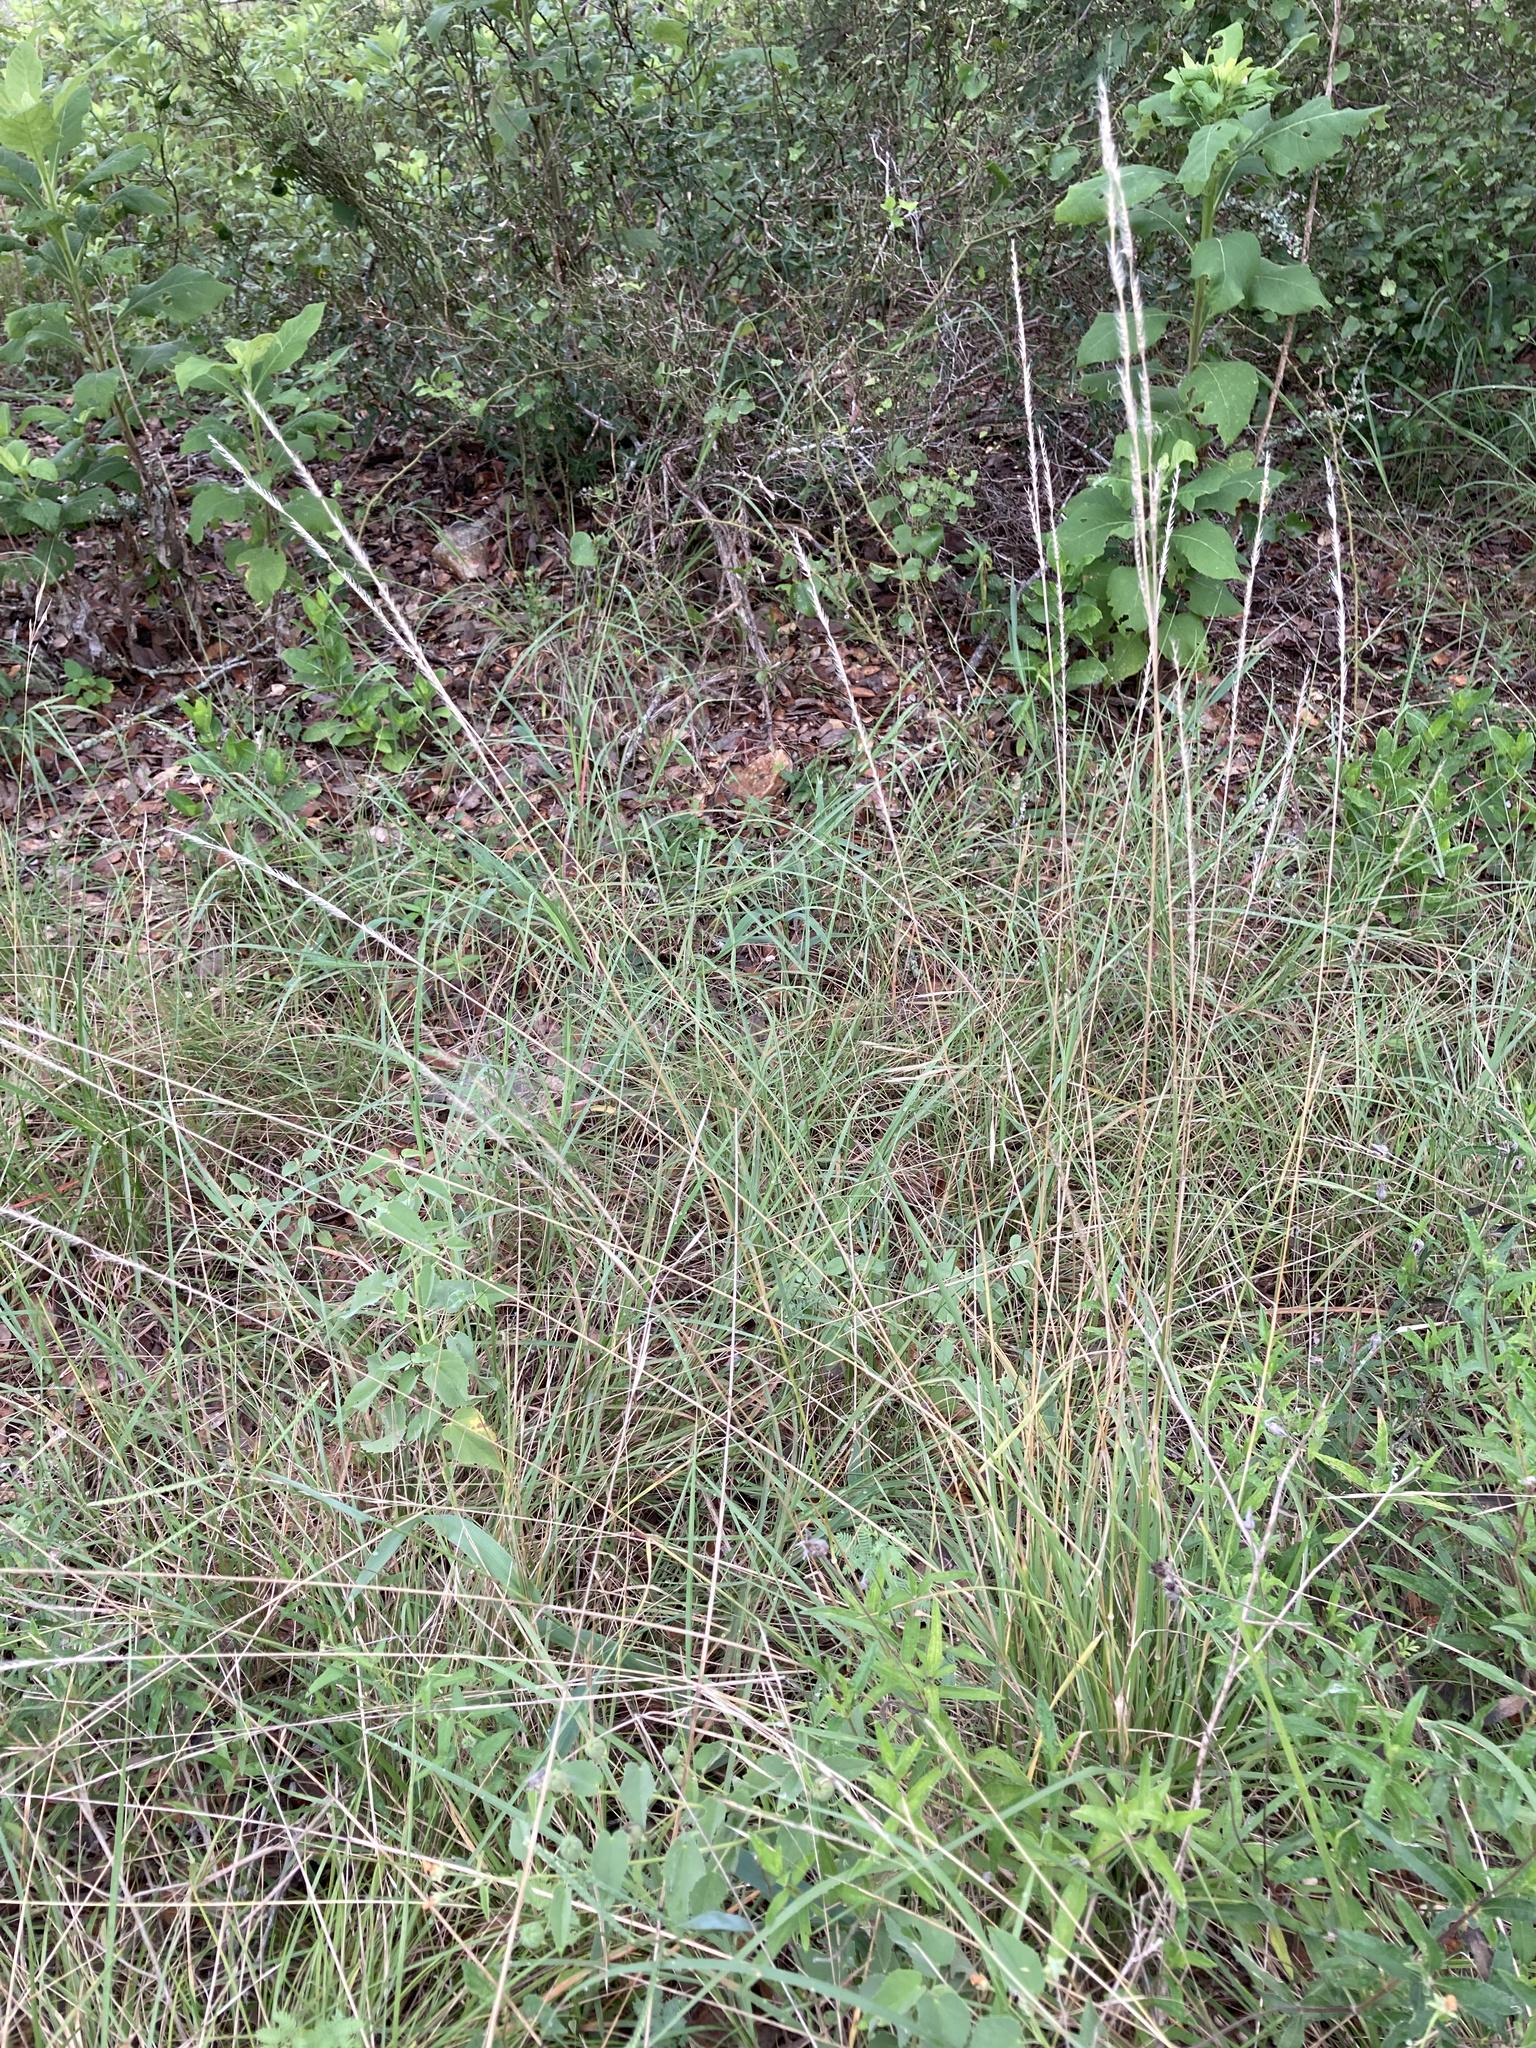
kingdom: Plantae
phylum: Tracheophyta
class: Liliopsida
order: Poales
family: Poaceae
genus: Eriochloa
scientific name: Eriochloa sericea
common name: Texas cup grass
